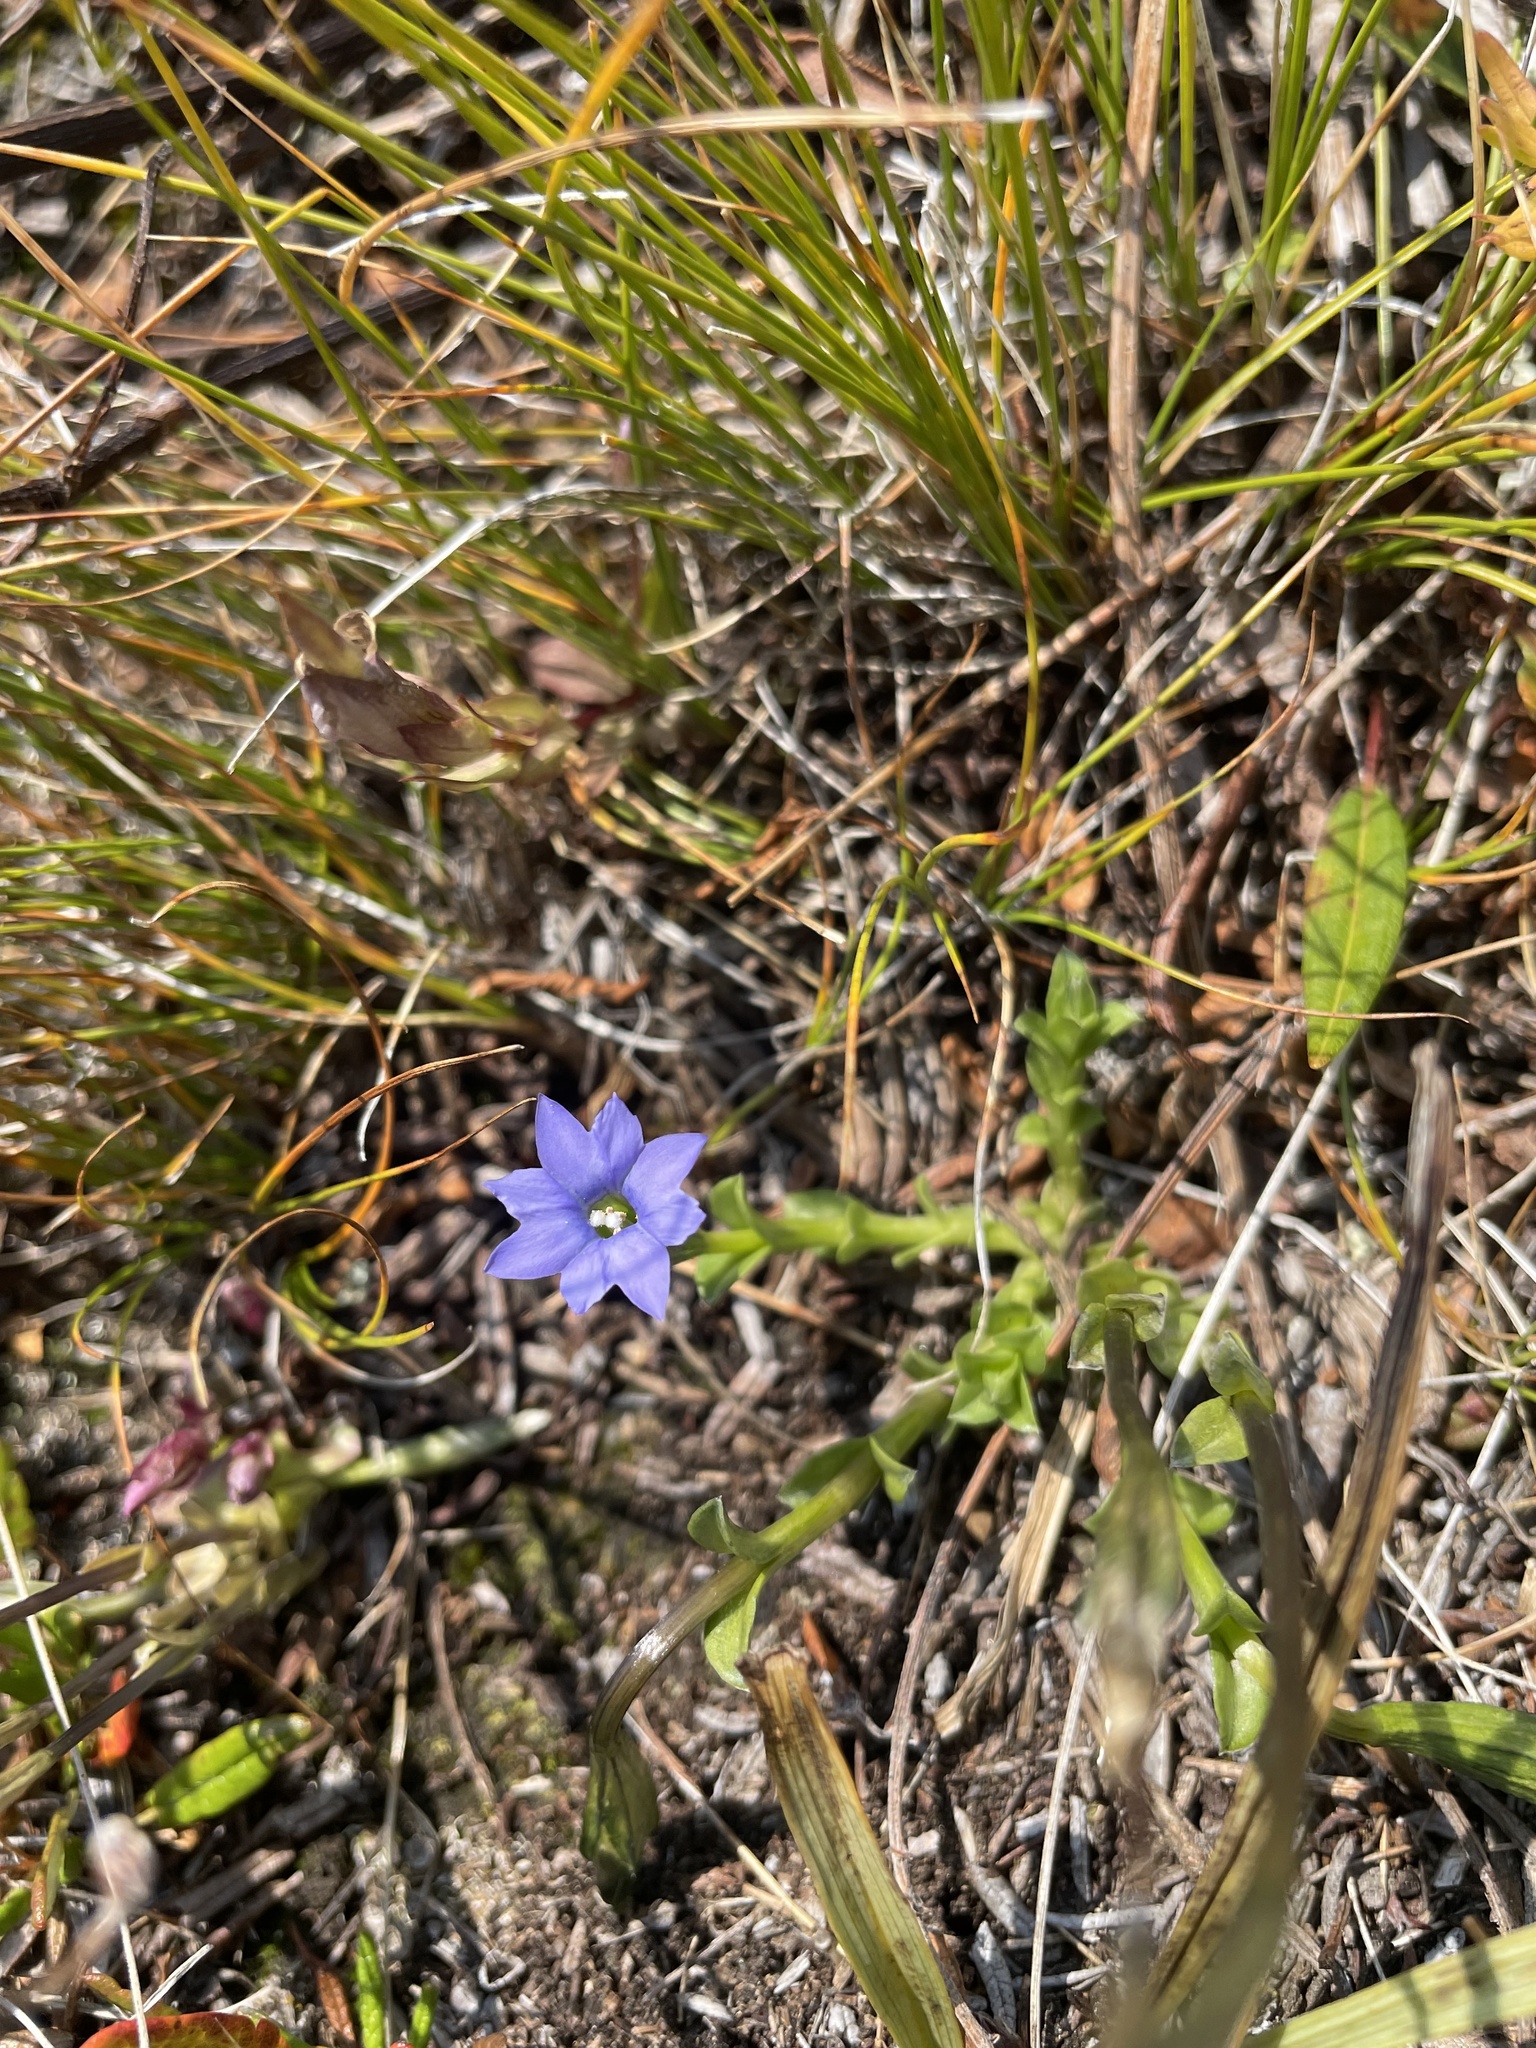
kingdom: Plantae
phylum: Tracheophyta
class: Magnoliopsida
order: Gentianales
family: Gentianaceae
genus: Gentiana
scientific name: Gentiana prostrata
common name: Moss gentian
